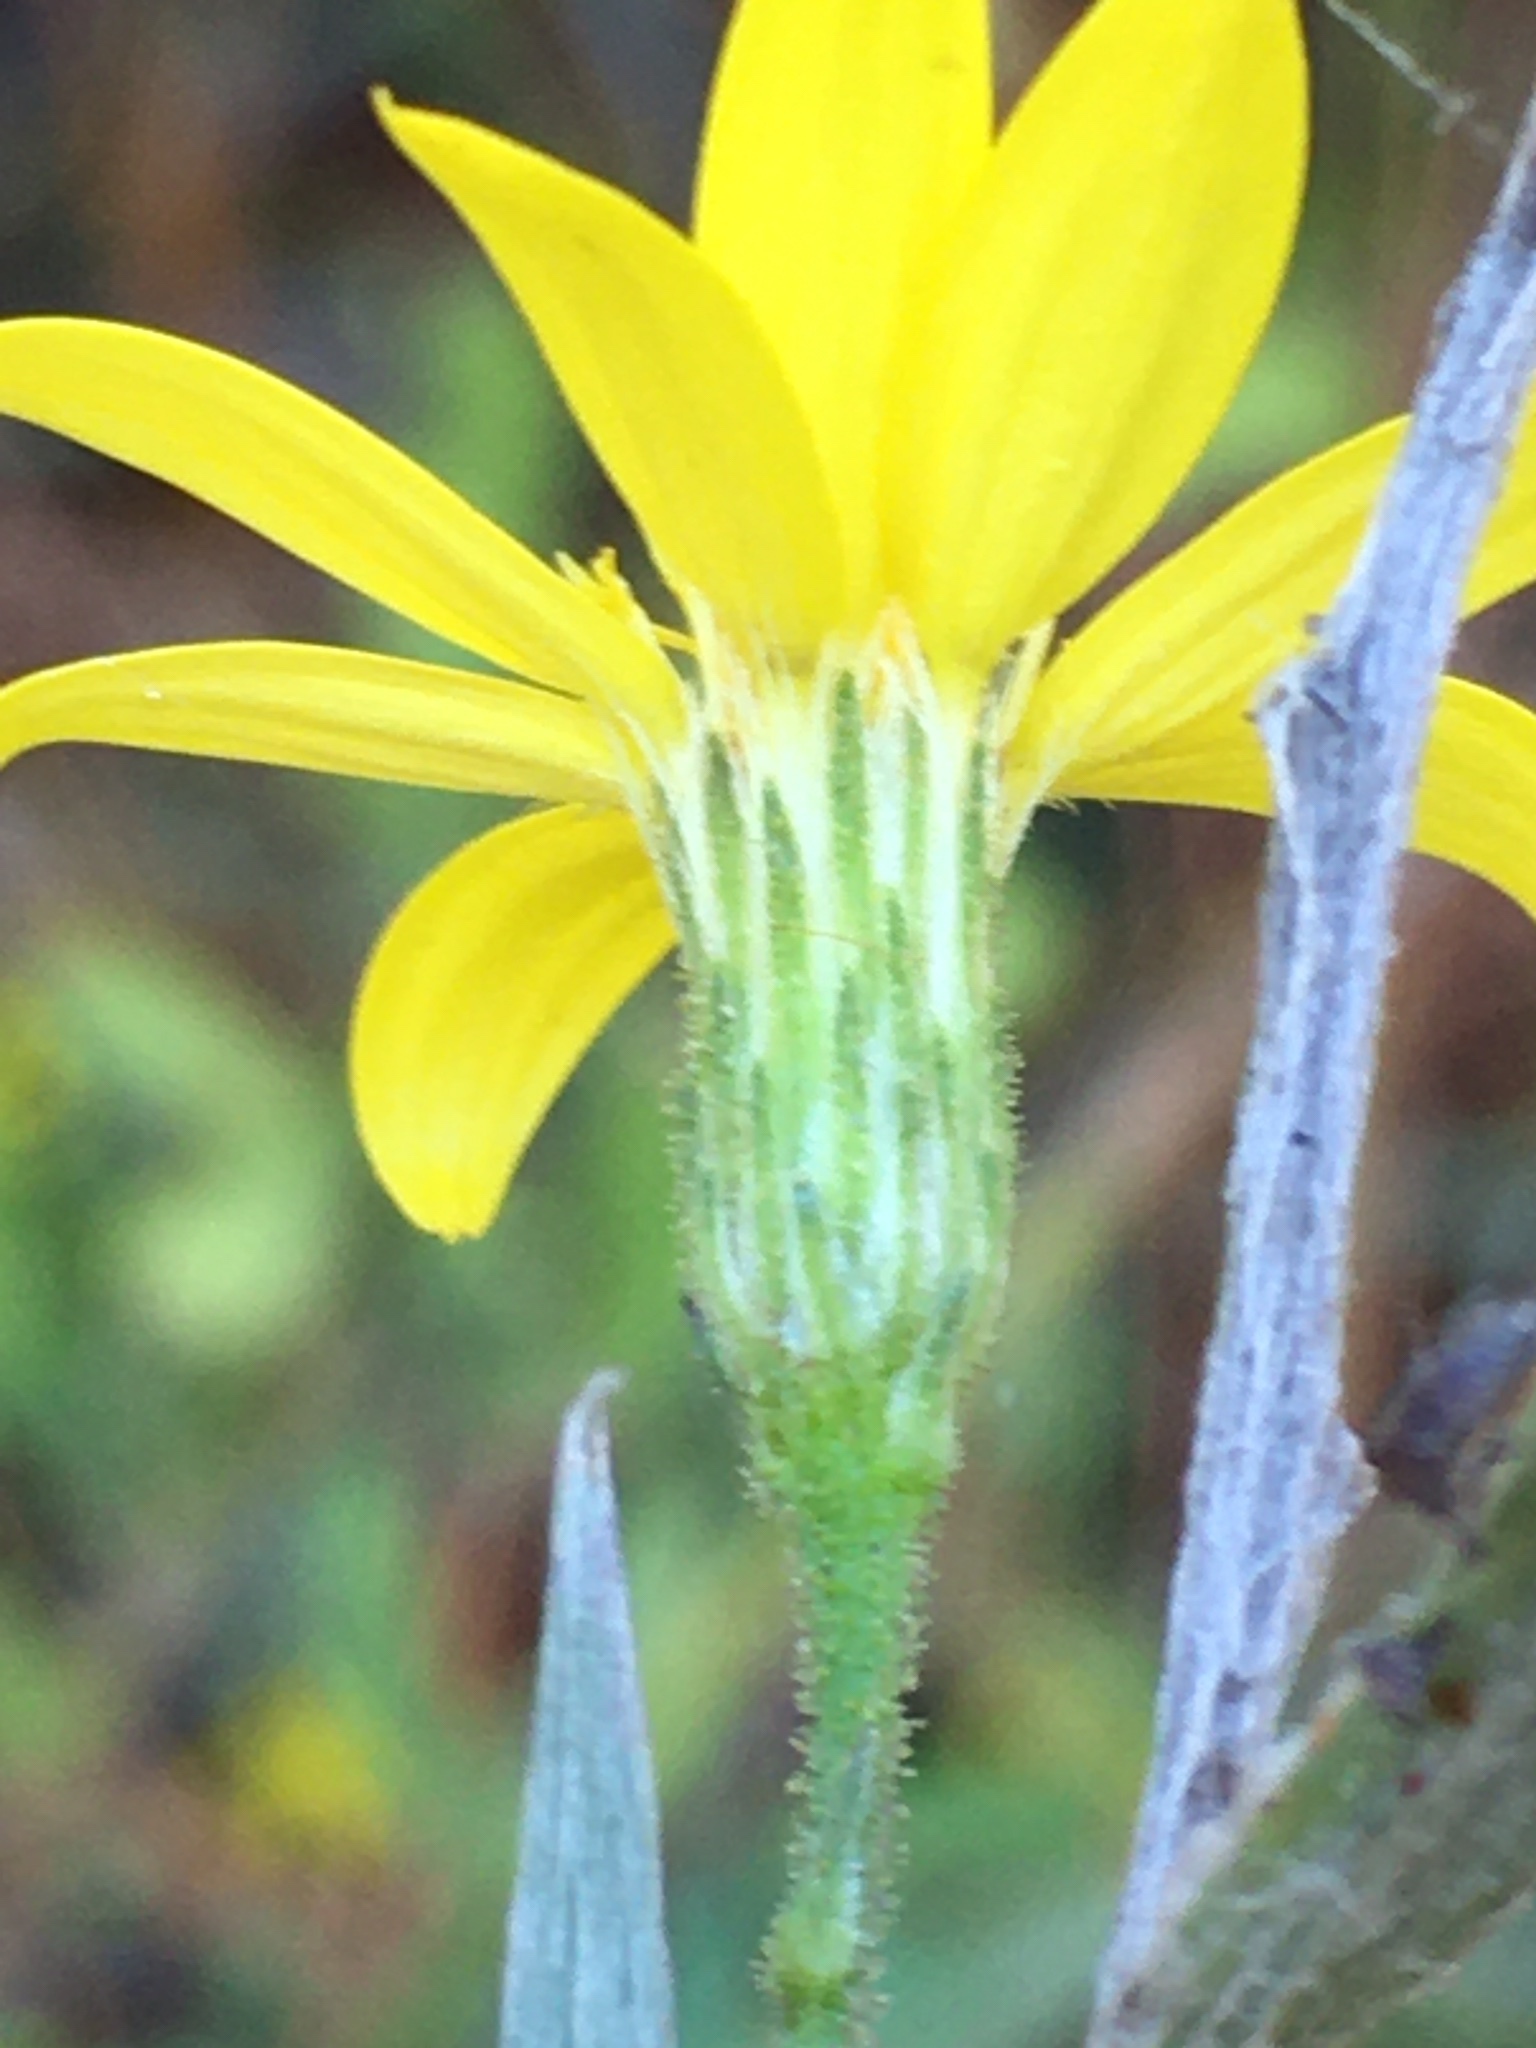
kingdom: Plantae
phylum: Tracheophyta
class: Magnoliopsida
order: Asterales
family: Asteraceae
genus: Pityopsis
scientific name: Pityopsis aspera
